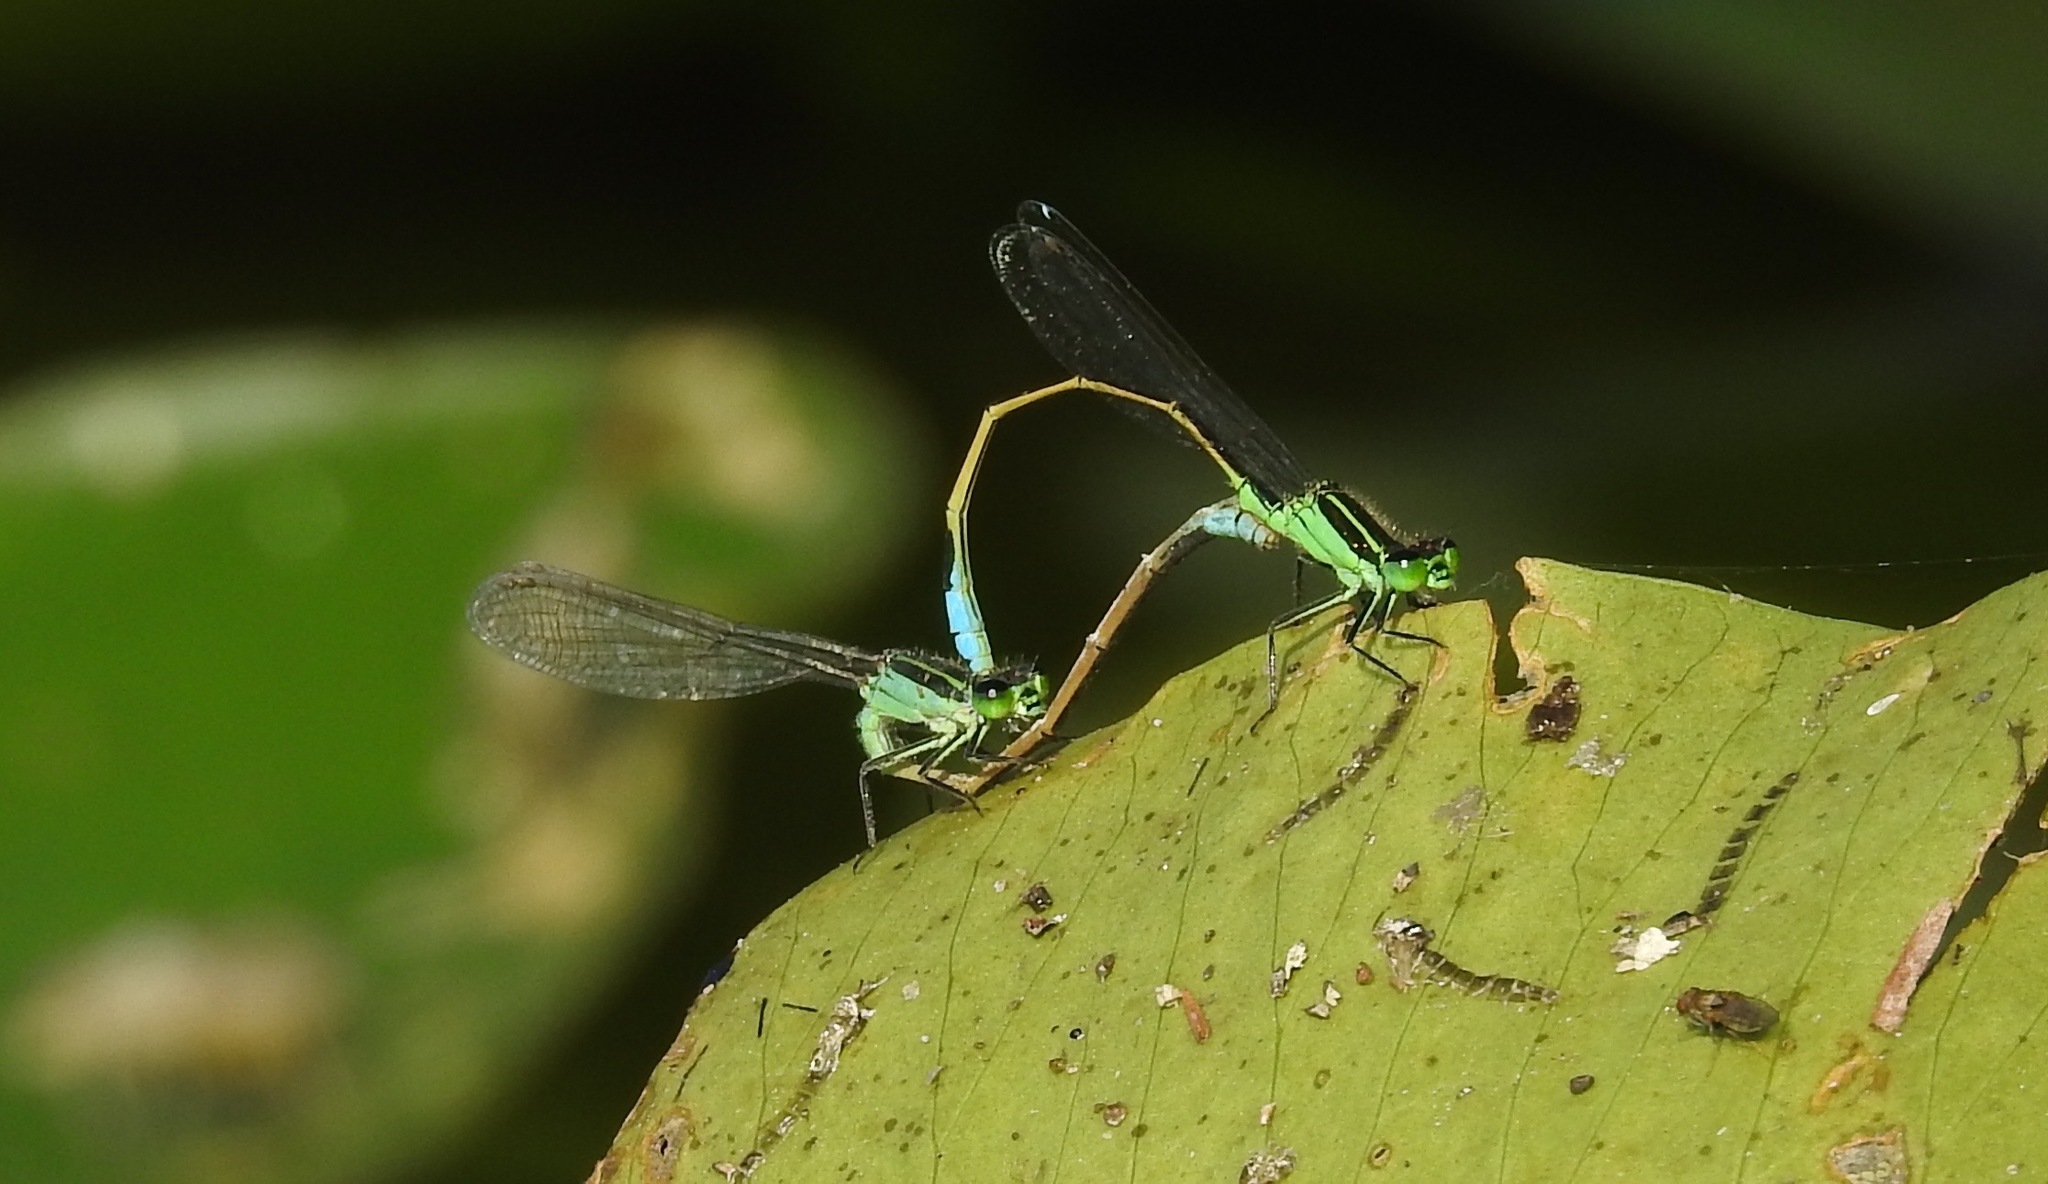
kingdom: Animalia
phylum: Arthropoda
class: Insecta
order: Odonata
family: Coenagrionidae
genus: Ischnura
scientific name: Ischnura ramburii
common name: Rambur's forktail
